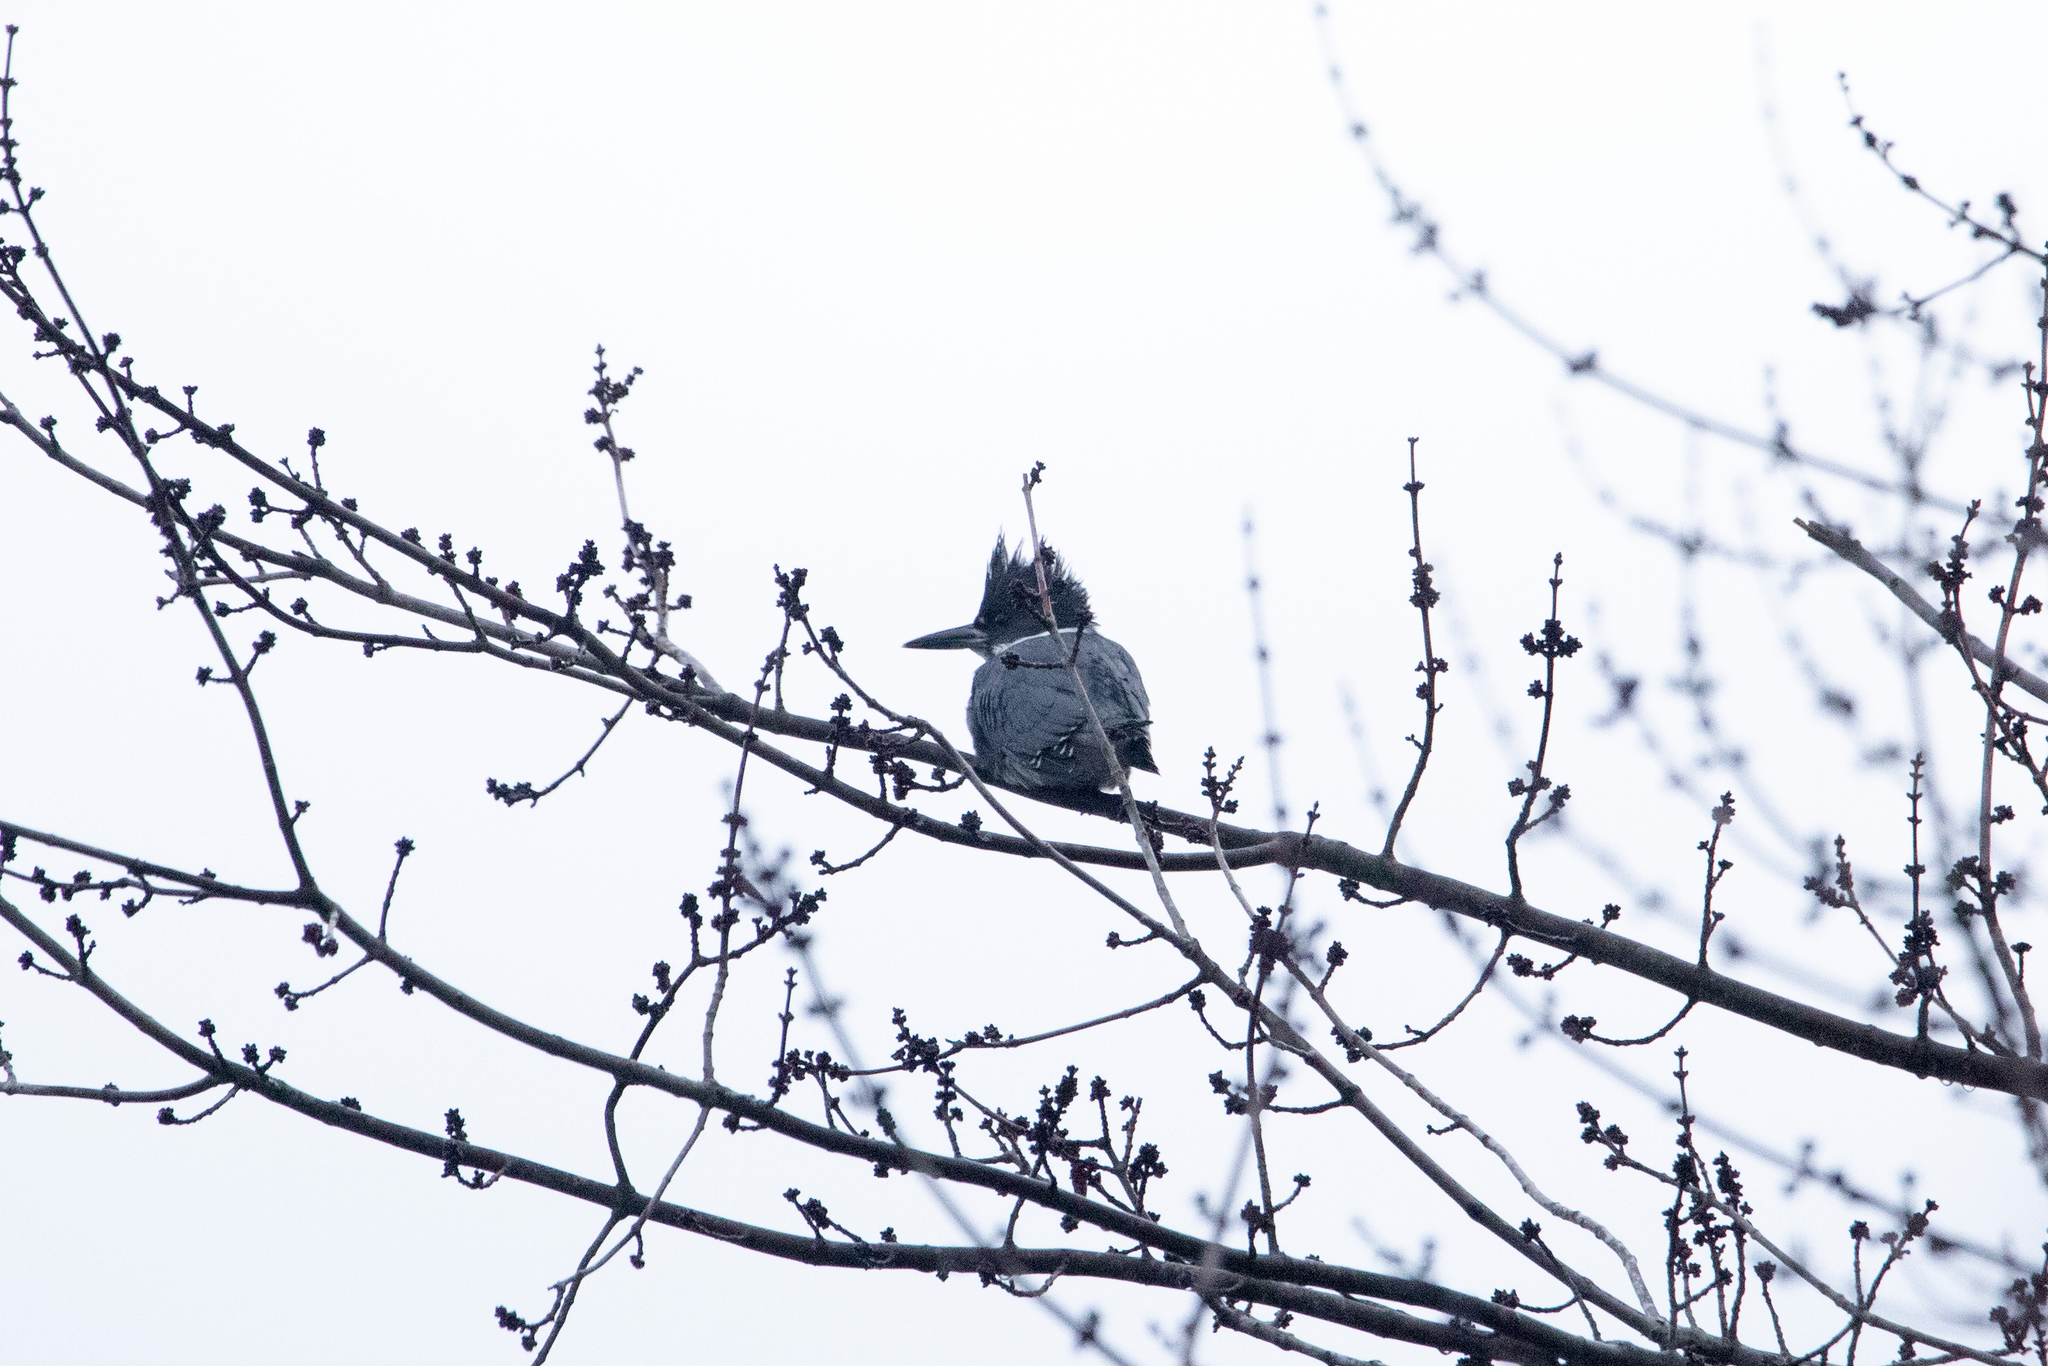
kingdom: Animalia
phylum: Chordata
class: Aves
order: Coraciiformes
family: Alcedinidae
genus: Megaceryle
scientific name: Megaceryle alcyon
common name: Belted kingfisher
